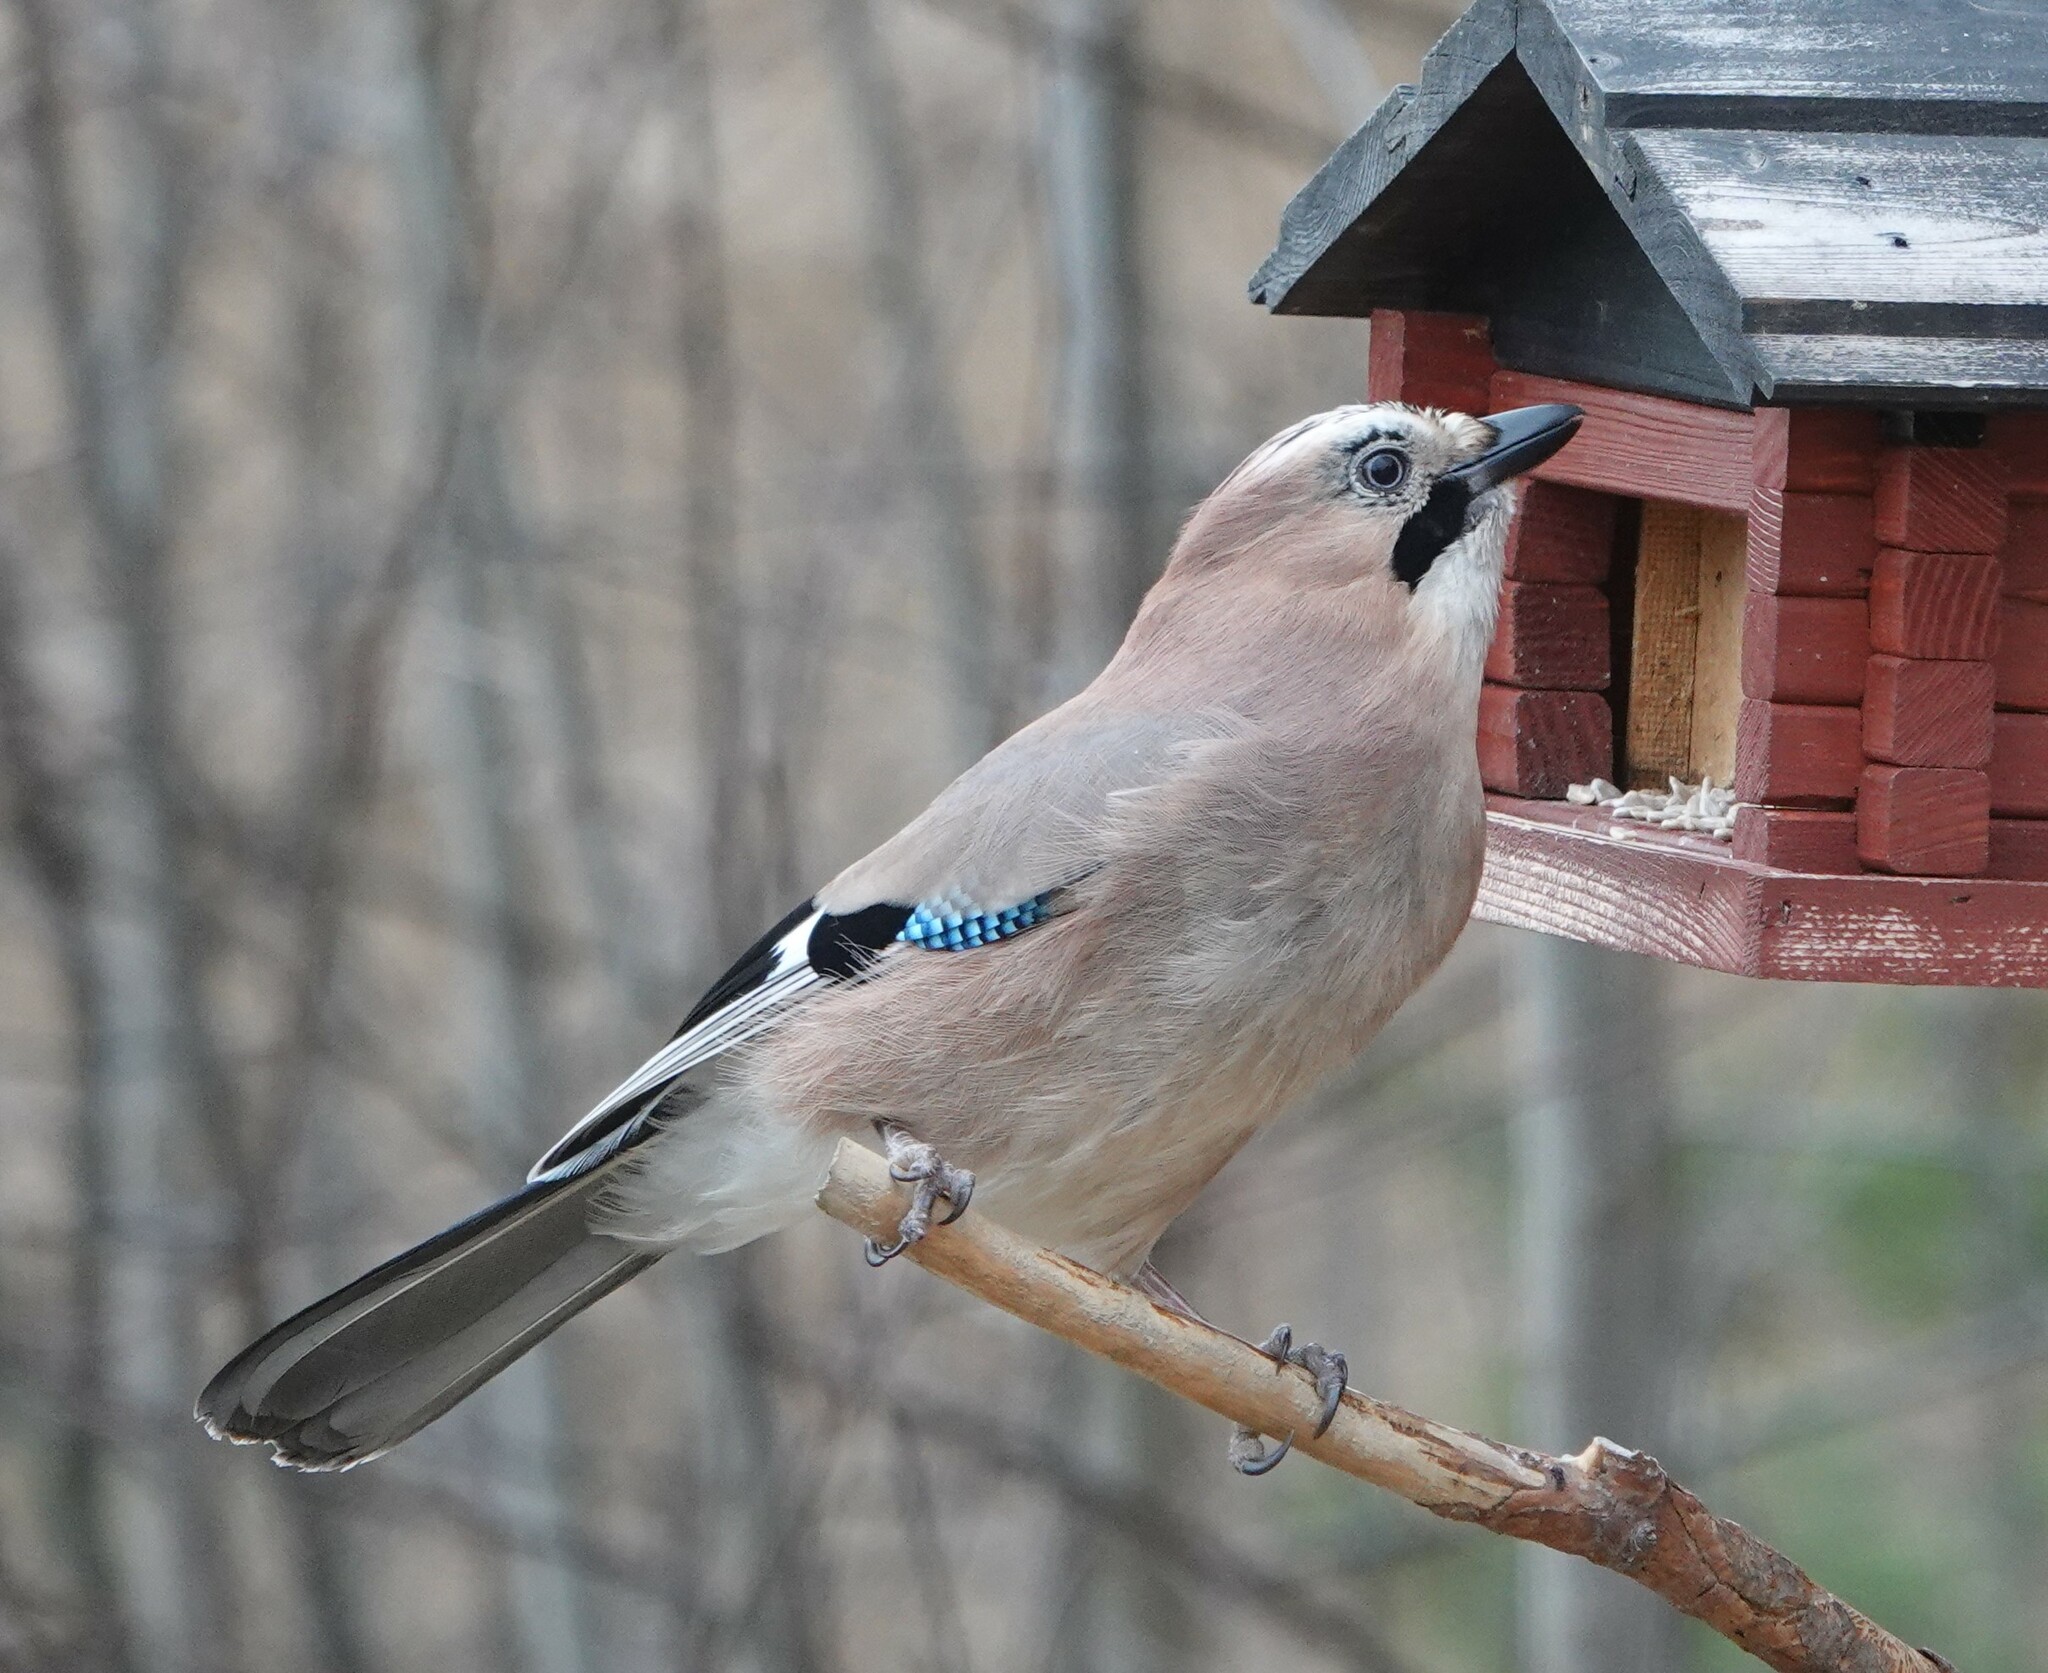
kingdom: Animalia
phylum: Chordata
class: Aves
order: Passeriformes
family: Corvidae
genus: Garrulus
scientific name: Garrulus glandarius
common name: Eurasian jay
